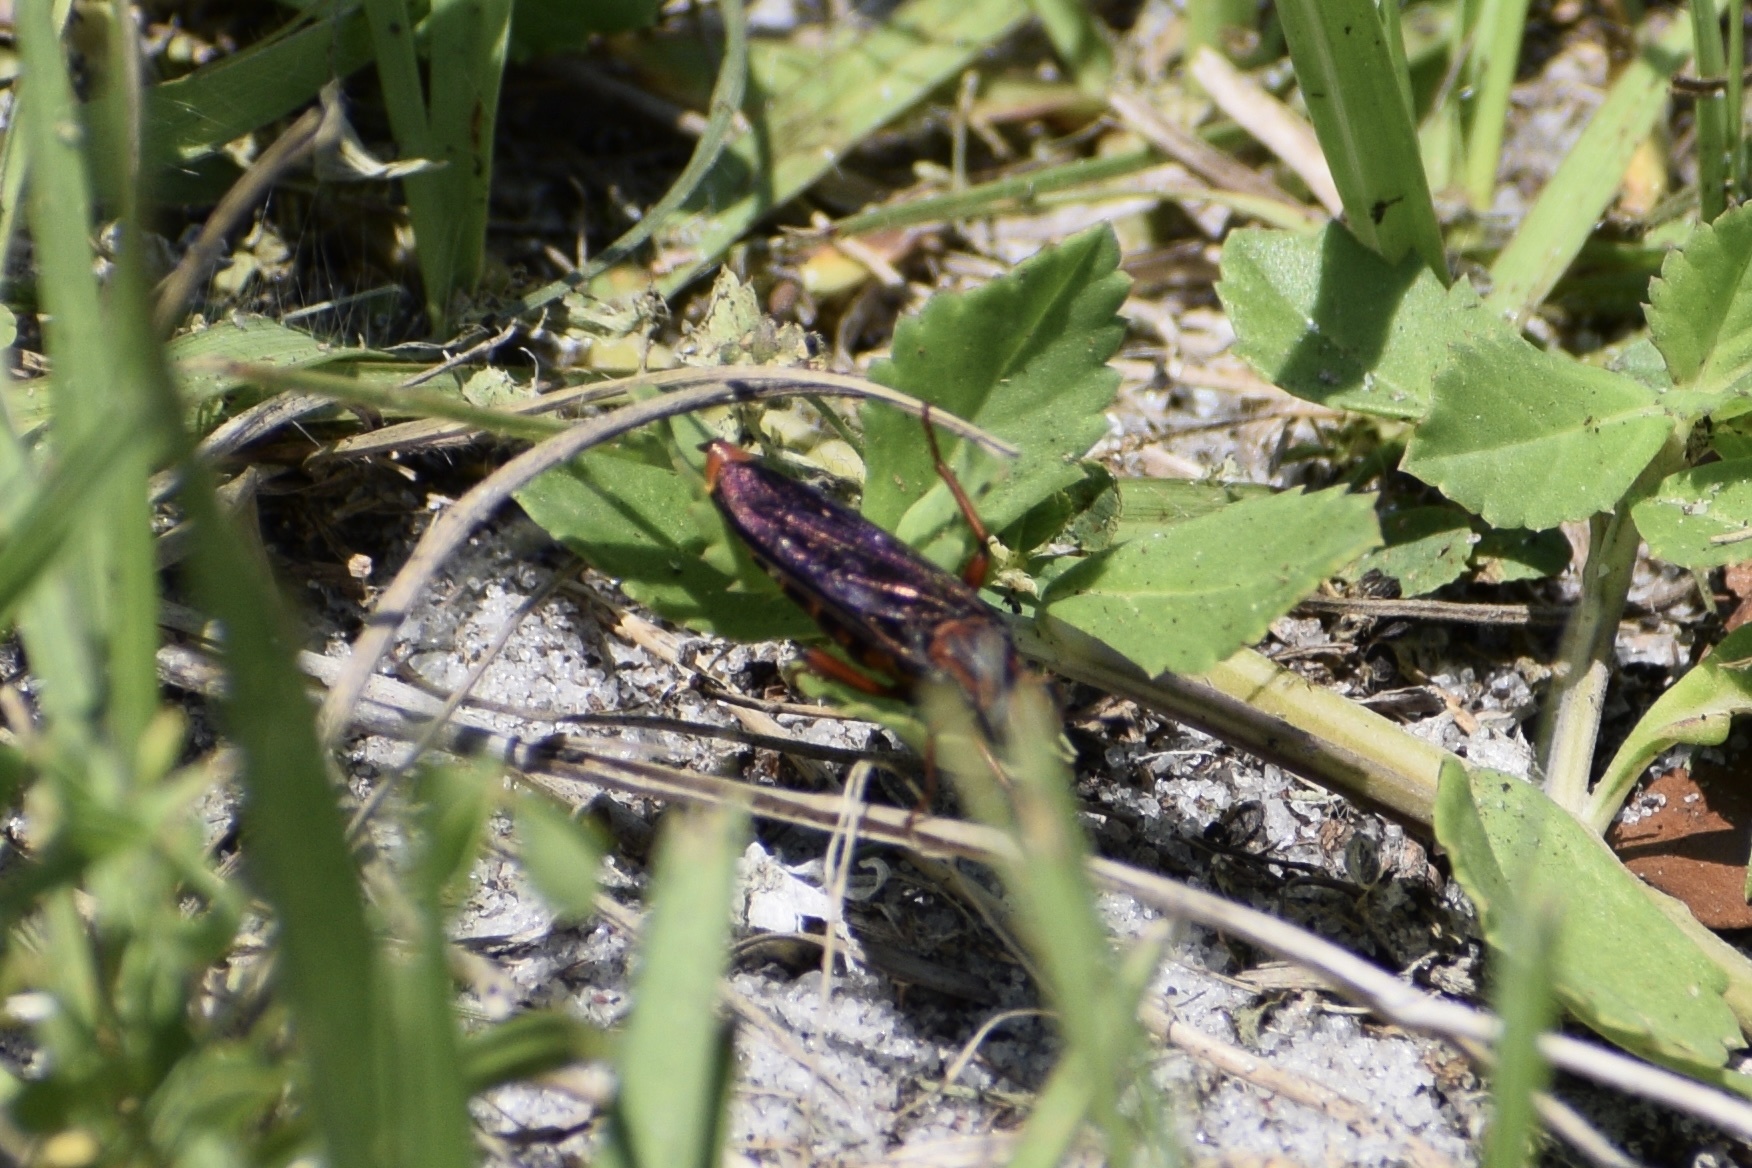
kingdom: Animalia
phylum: Arthropoda
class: Insecta
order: Diptera
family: Mydidae
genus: Phyllomydas
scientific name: Phyllomydas parvulus
